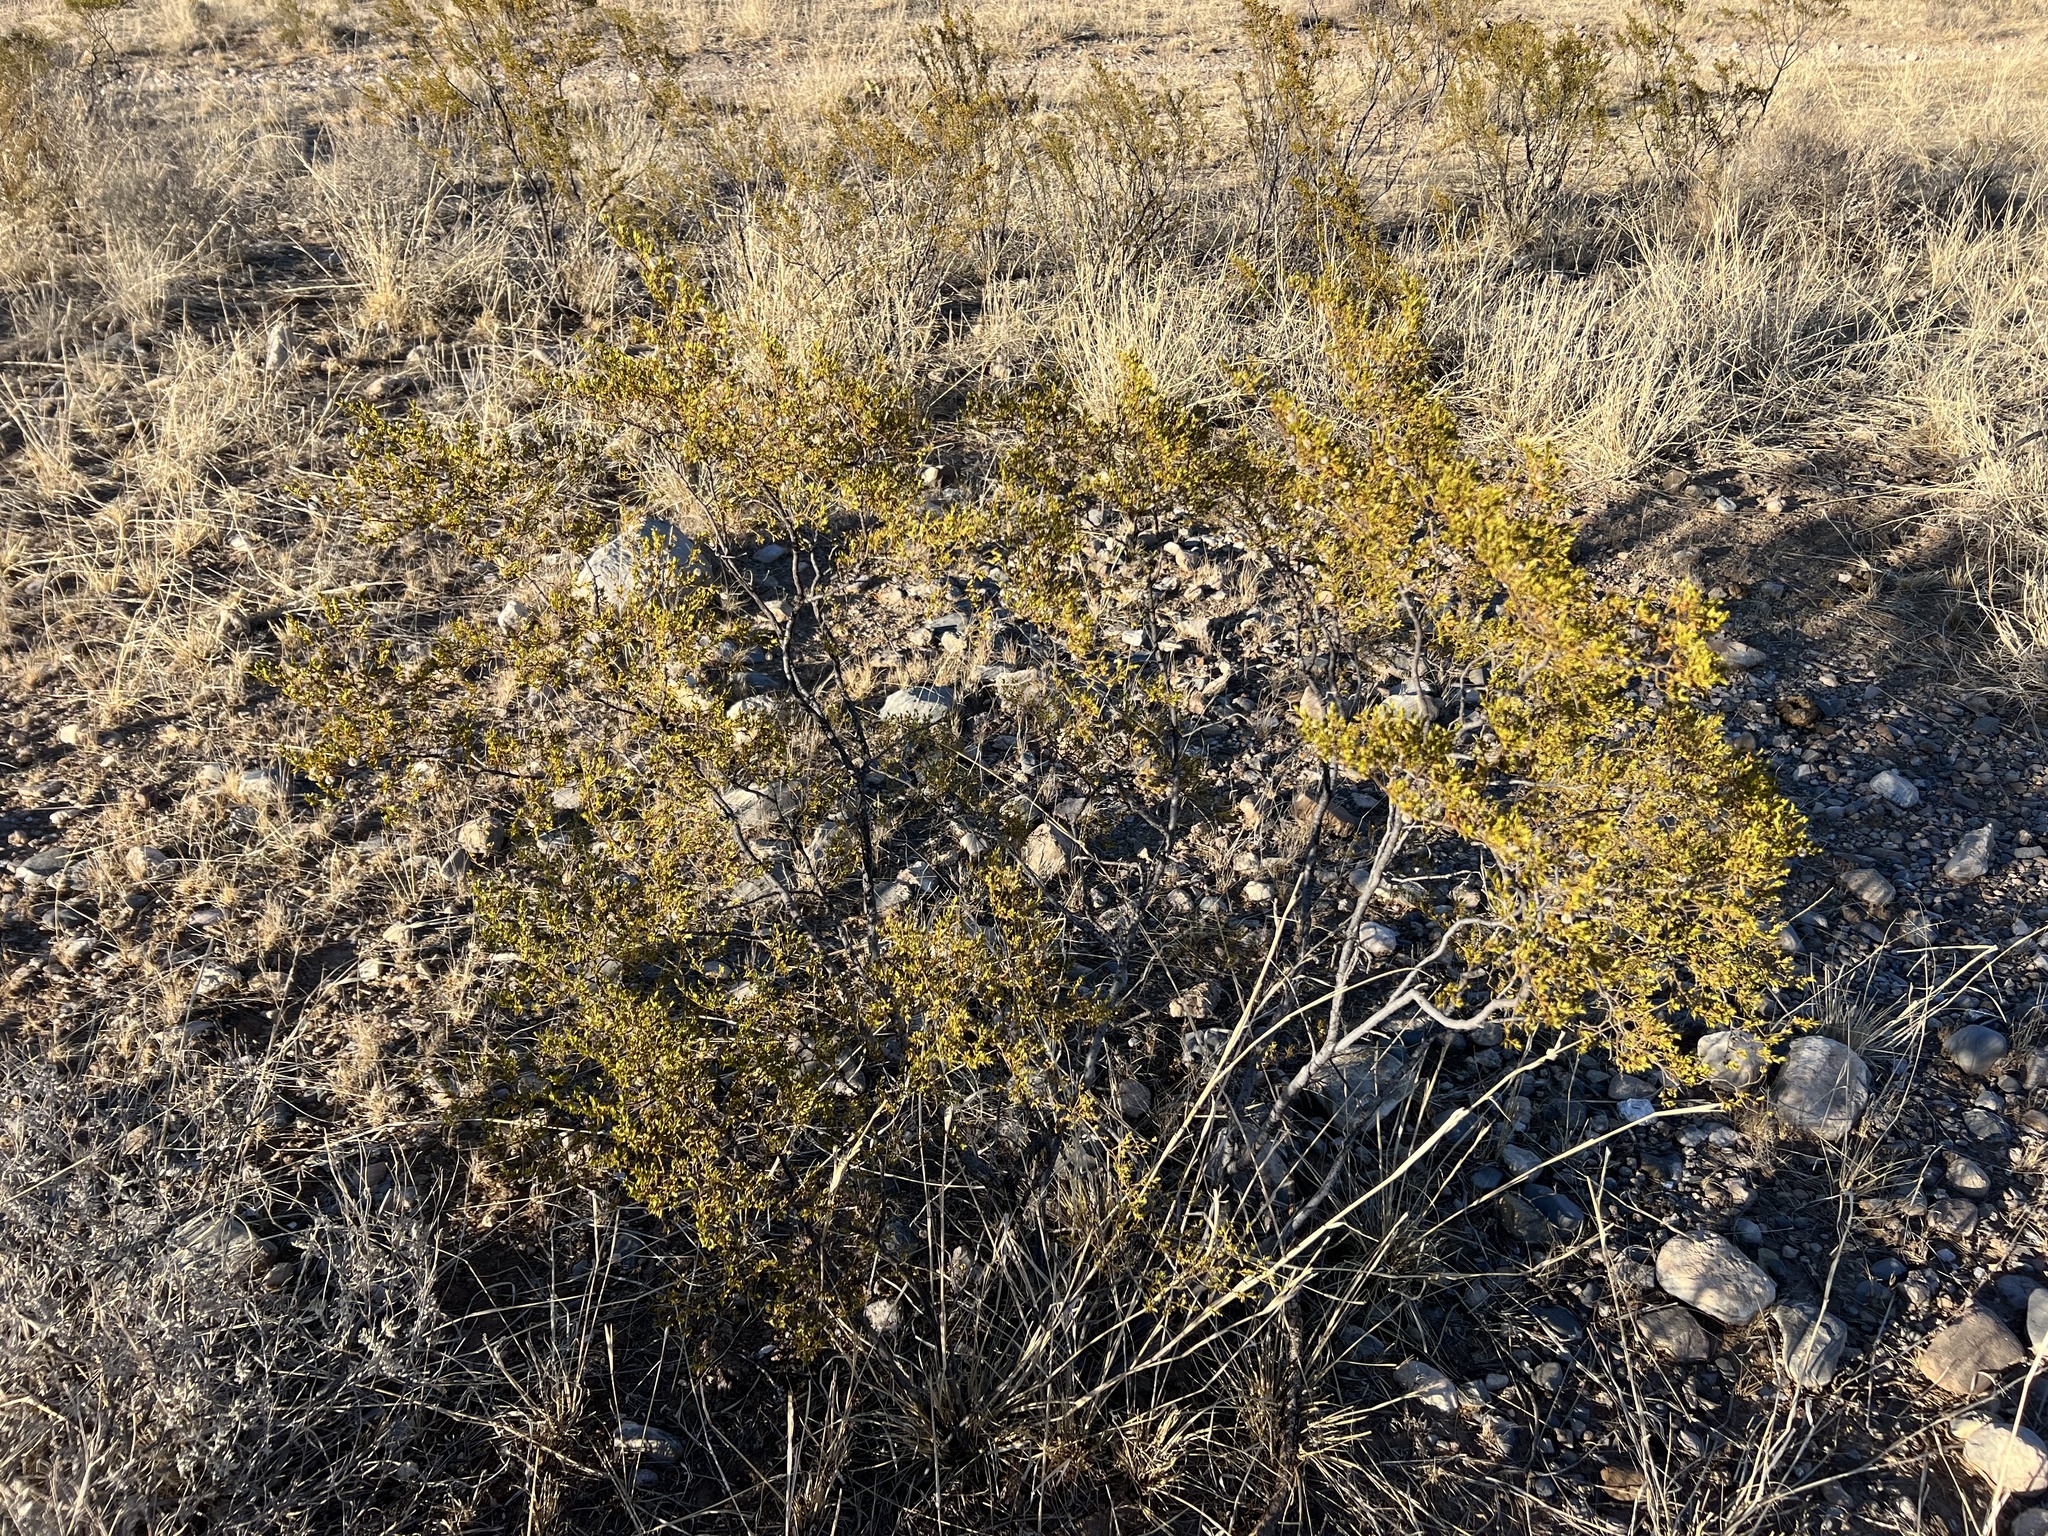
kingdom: Plantae
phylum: Tracheophyta
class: Magnoliopsida
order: Zygophyllales
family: Zygophyllaceae
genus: Larrea
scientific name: Larrea tridentata
